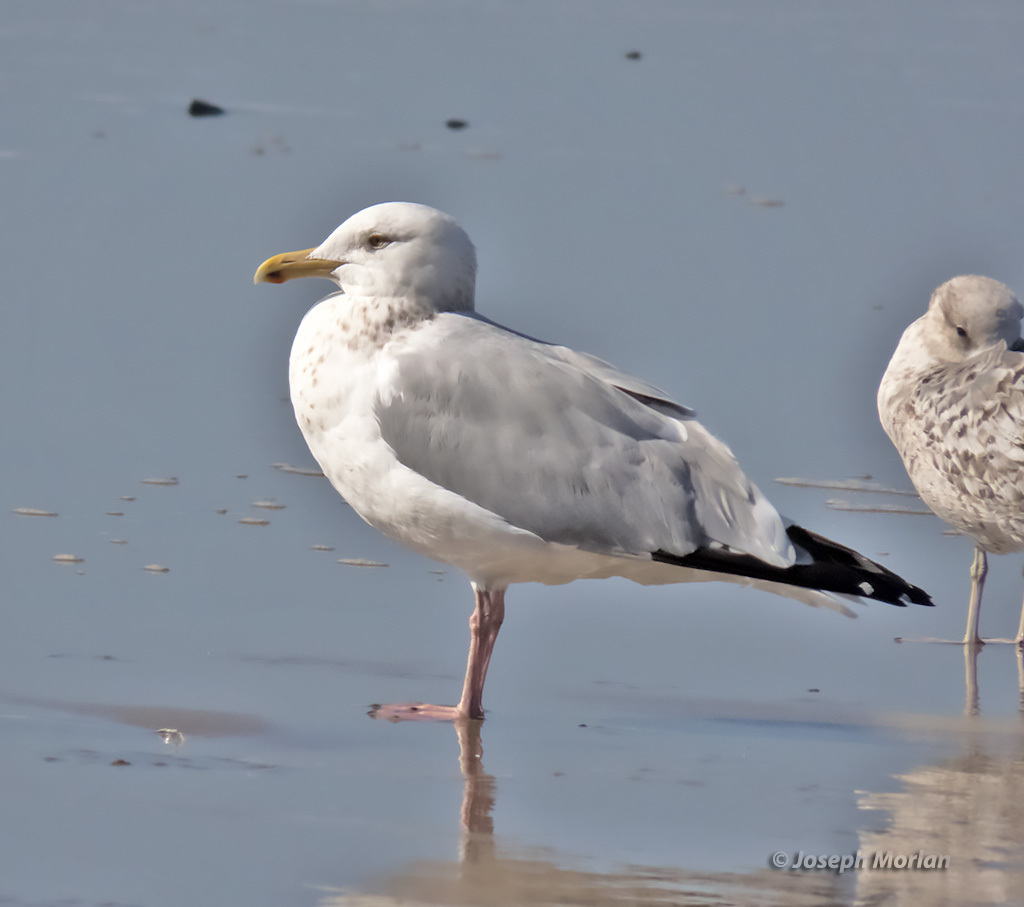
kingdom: Animalia
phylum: Chordata
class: Aves
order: Charadriiformes
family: Laridae
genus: Larus
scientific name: Larus argentatus
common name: Herring gull
